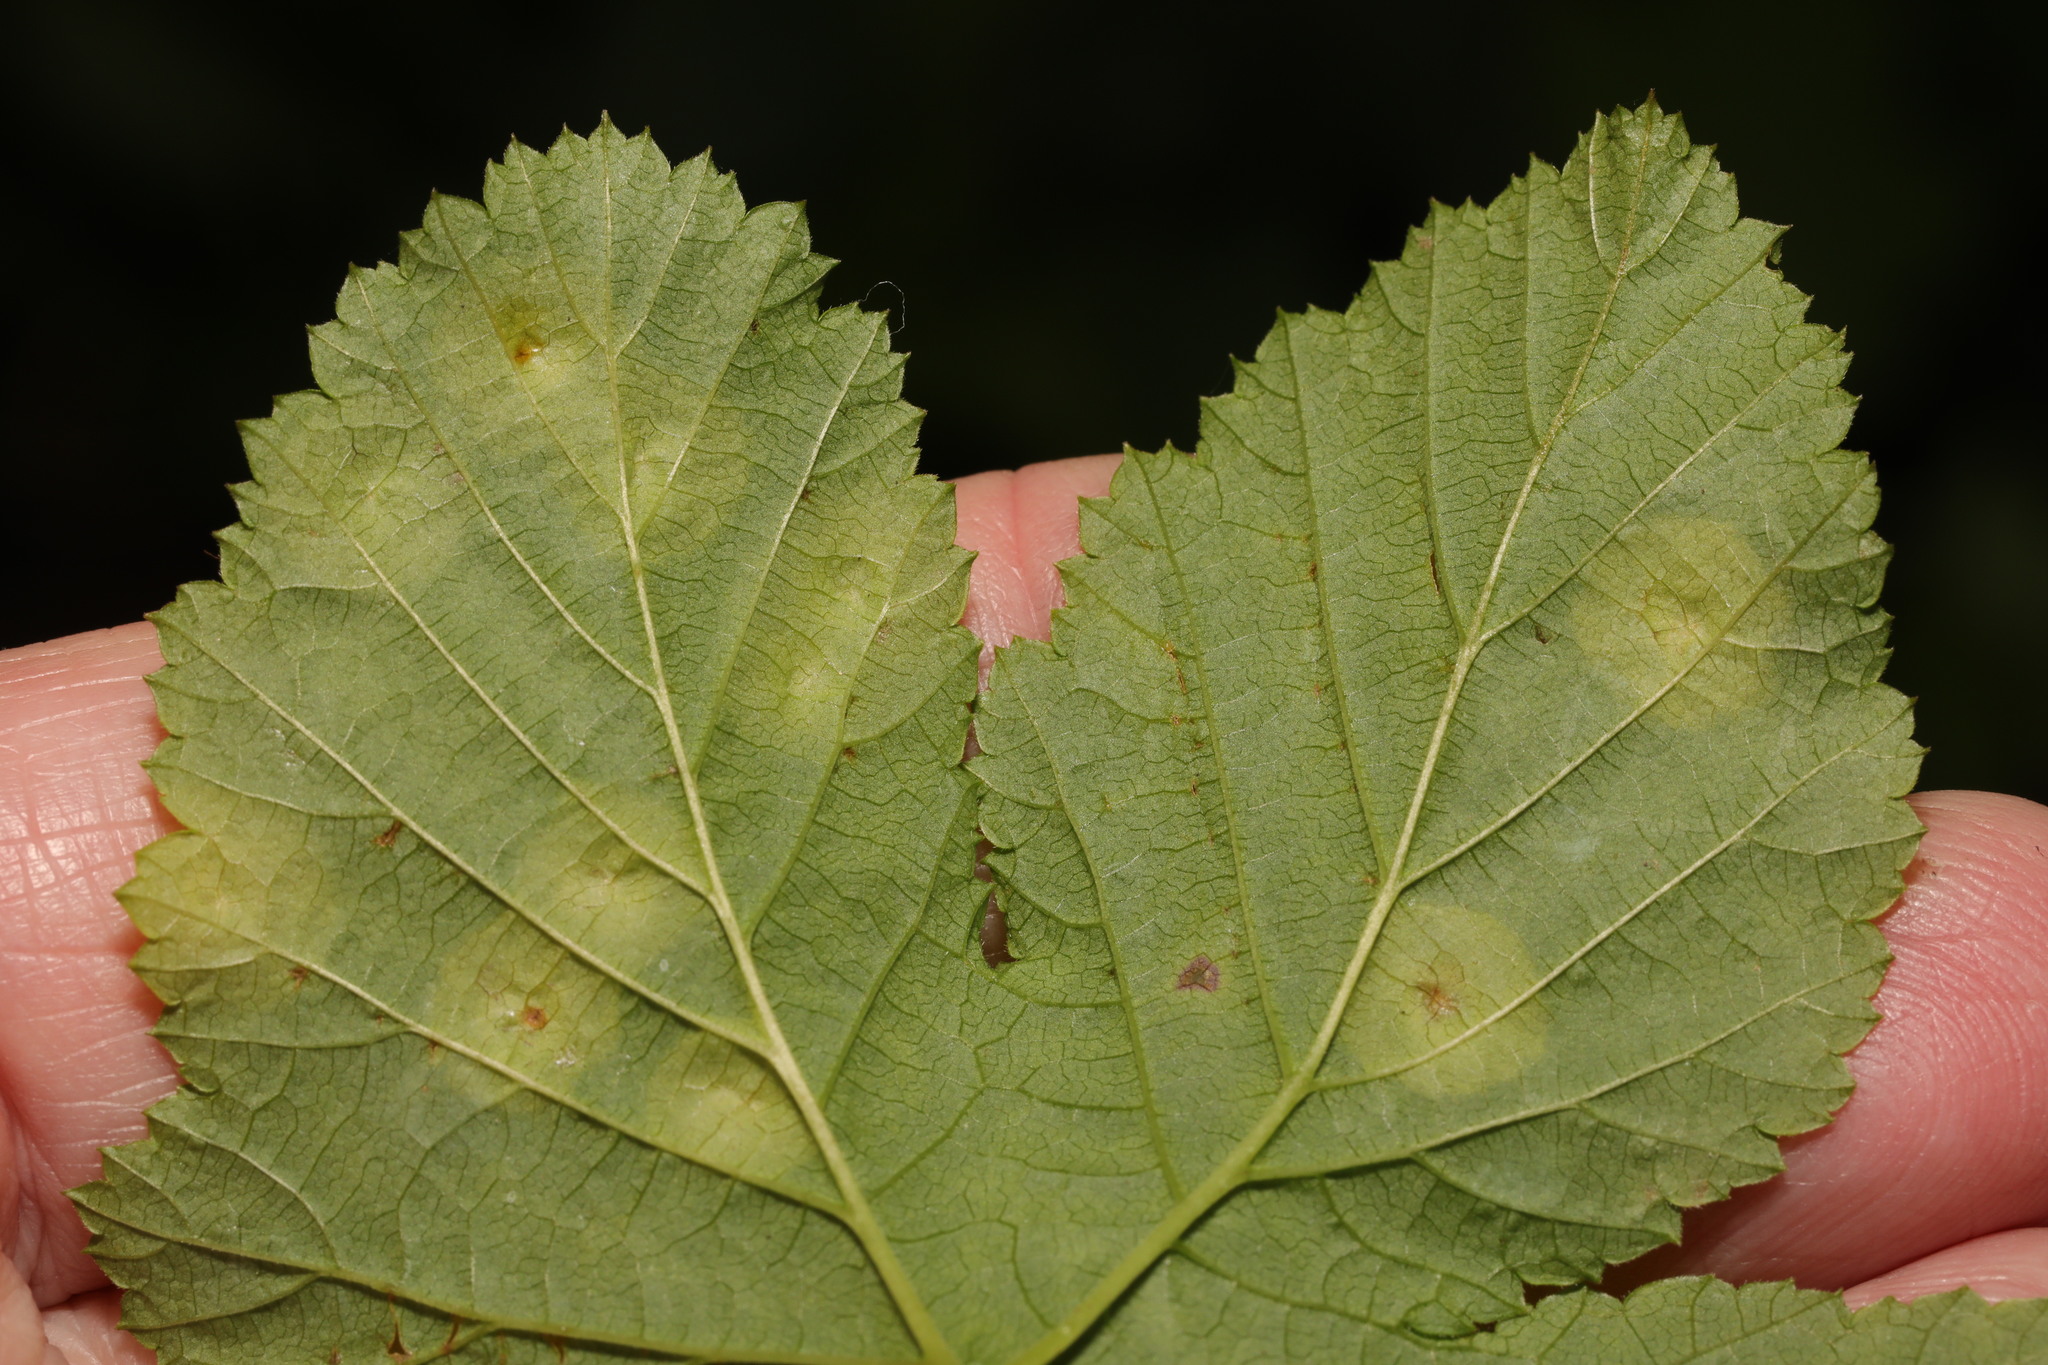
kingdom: Animalia
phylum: Arthropoda
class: Insecta
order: Diptera
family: Cecidomyiidae
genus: Dasineura
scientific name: Dasineura pustulans
